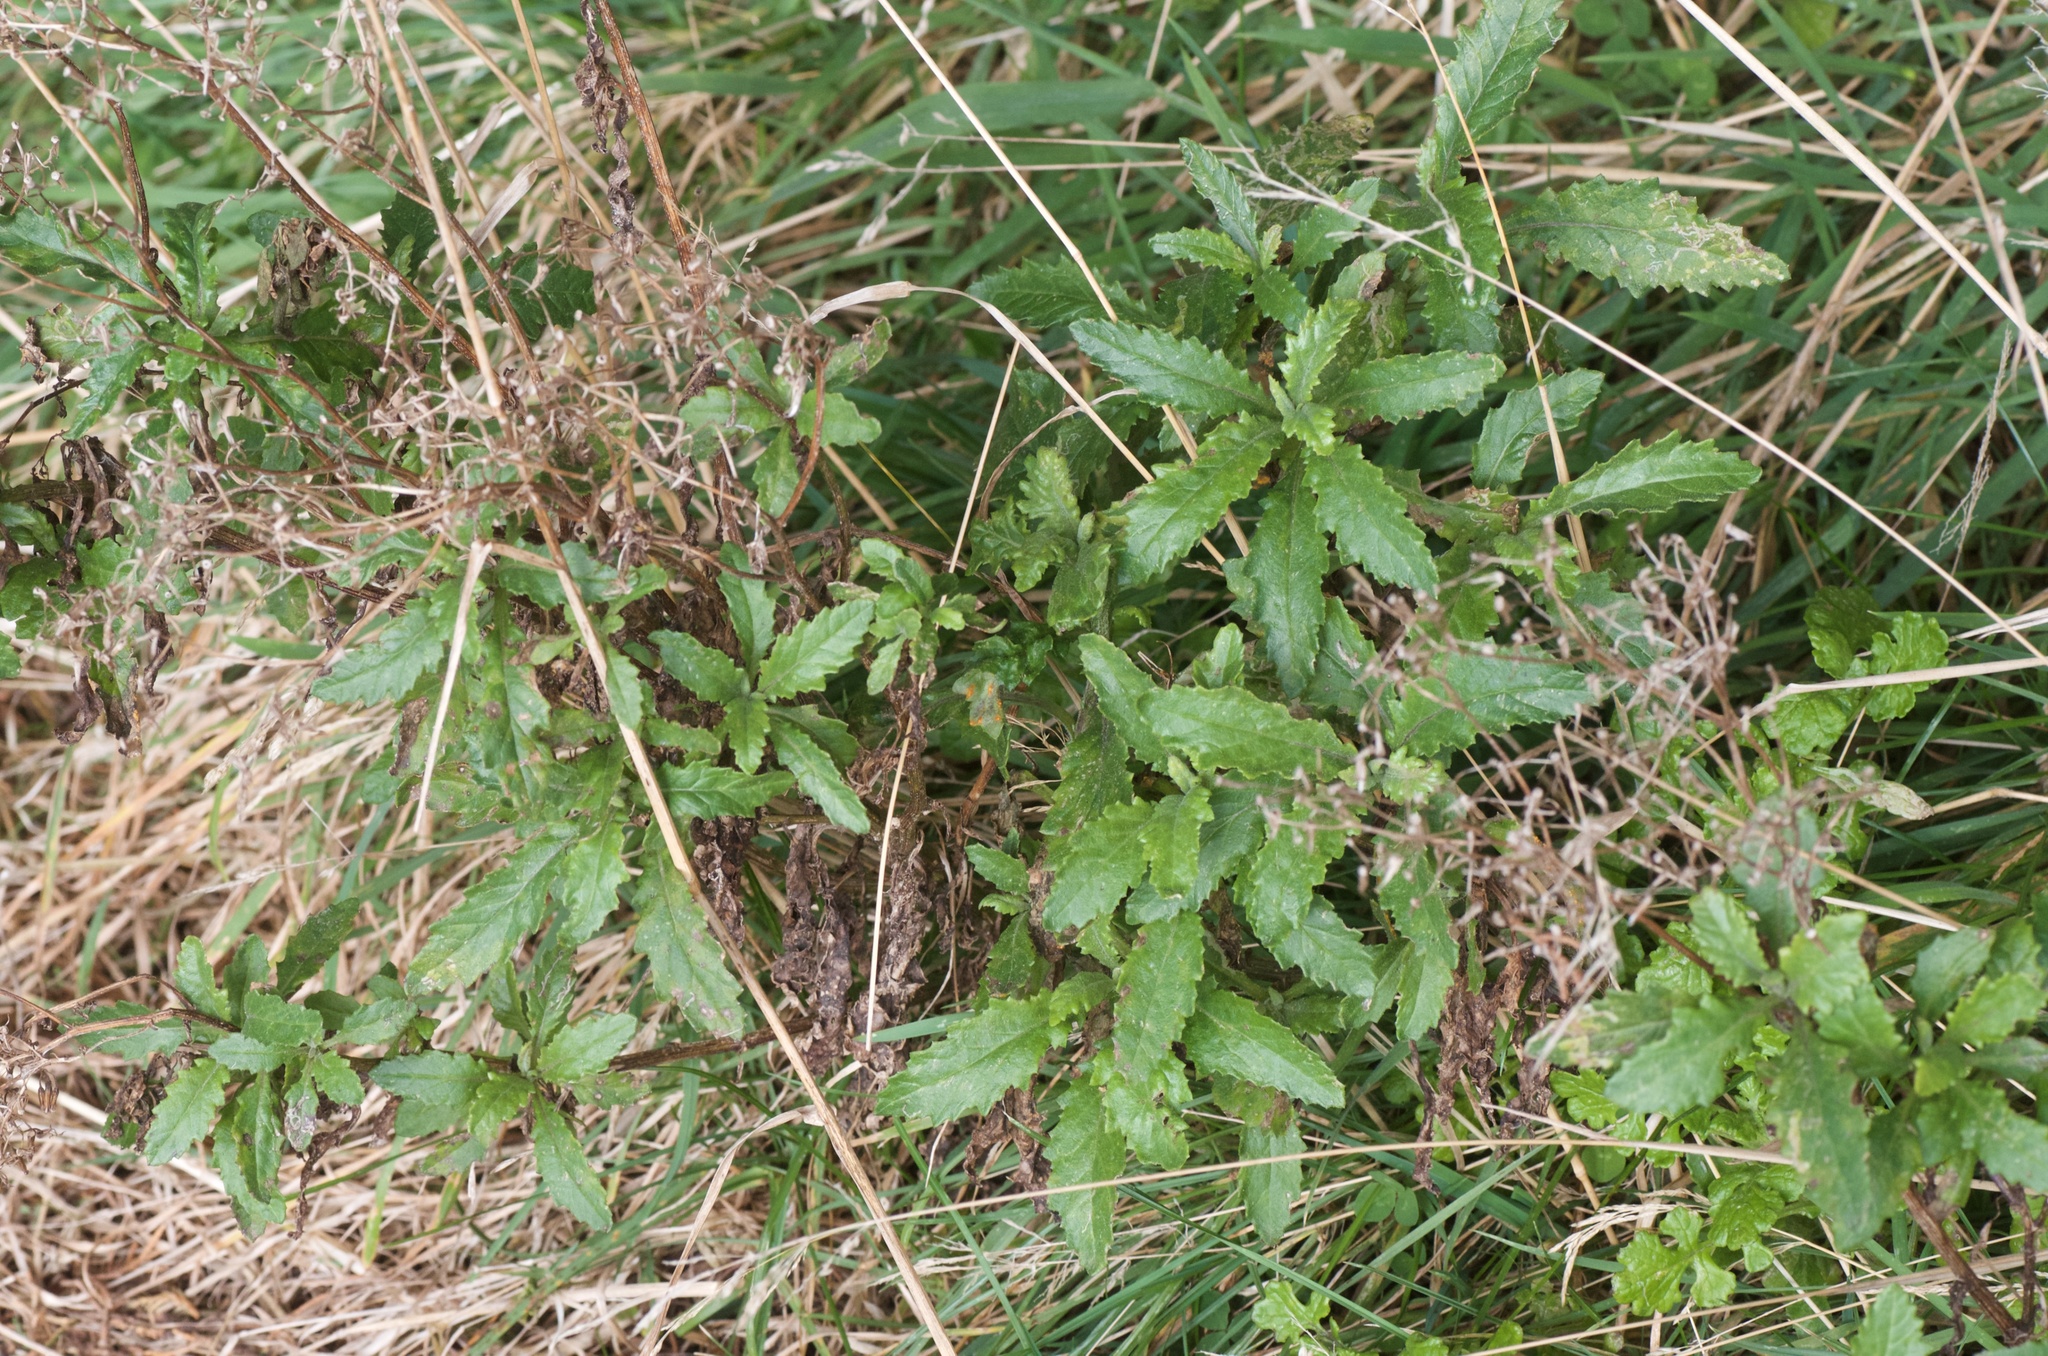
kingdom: Plantae
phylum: Tracheophyta
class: Magnoliopsida
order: Asterales
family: Asteraceae
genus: Senecio
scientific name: Senecio biserratus
